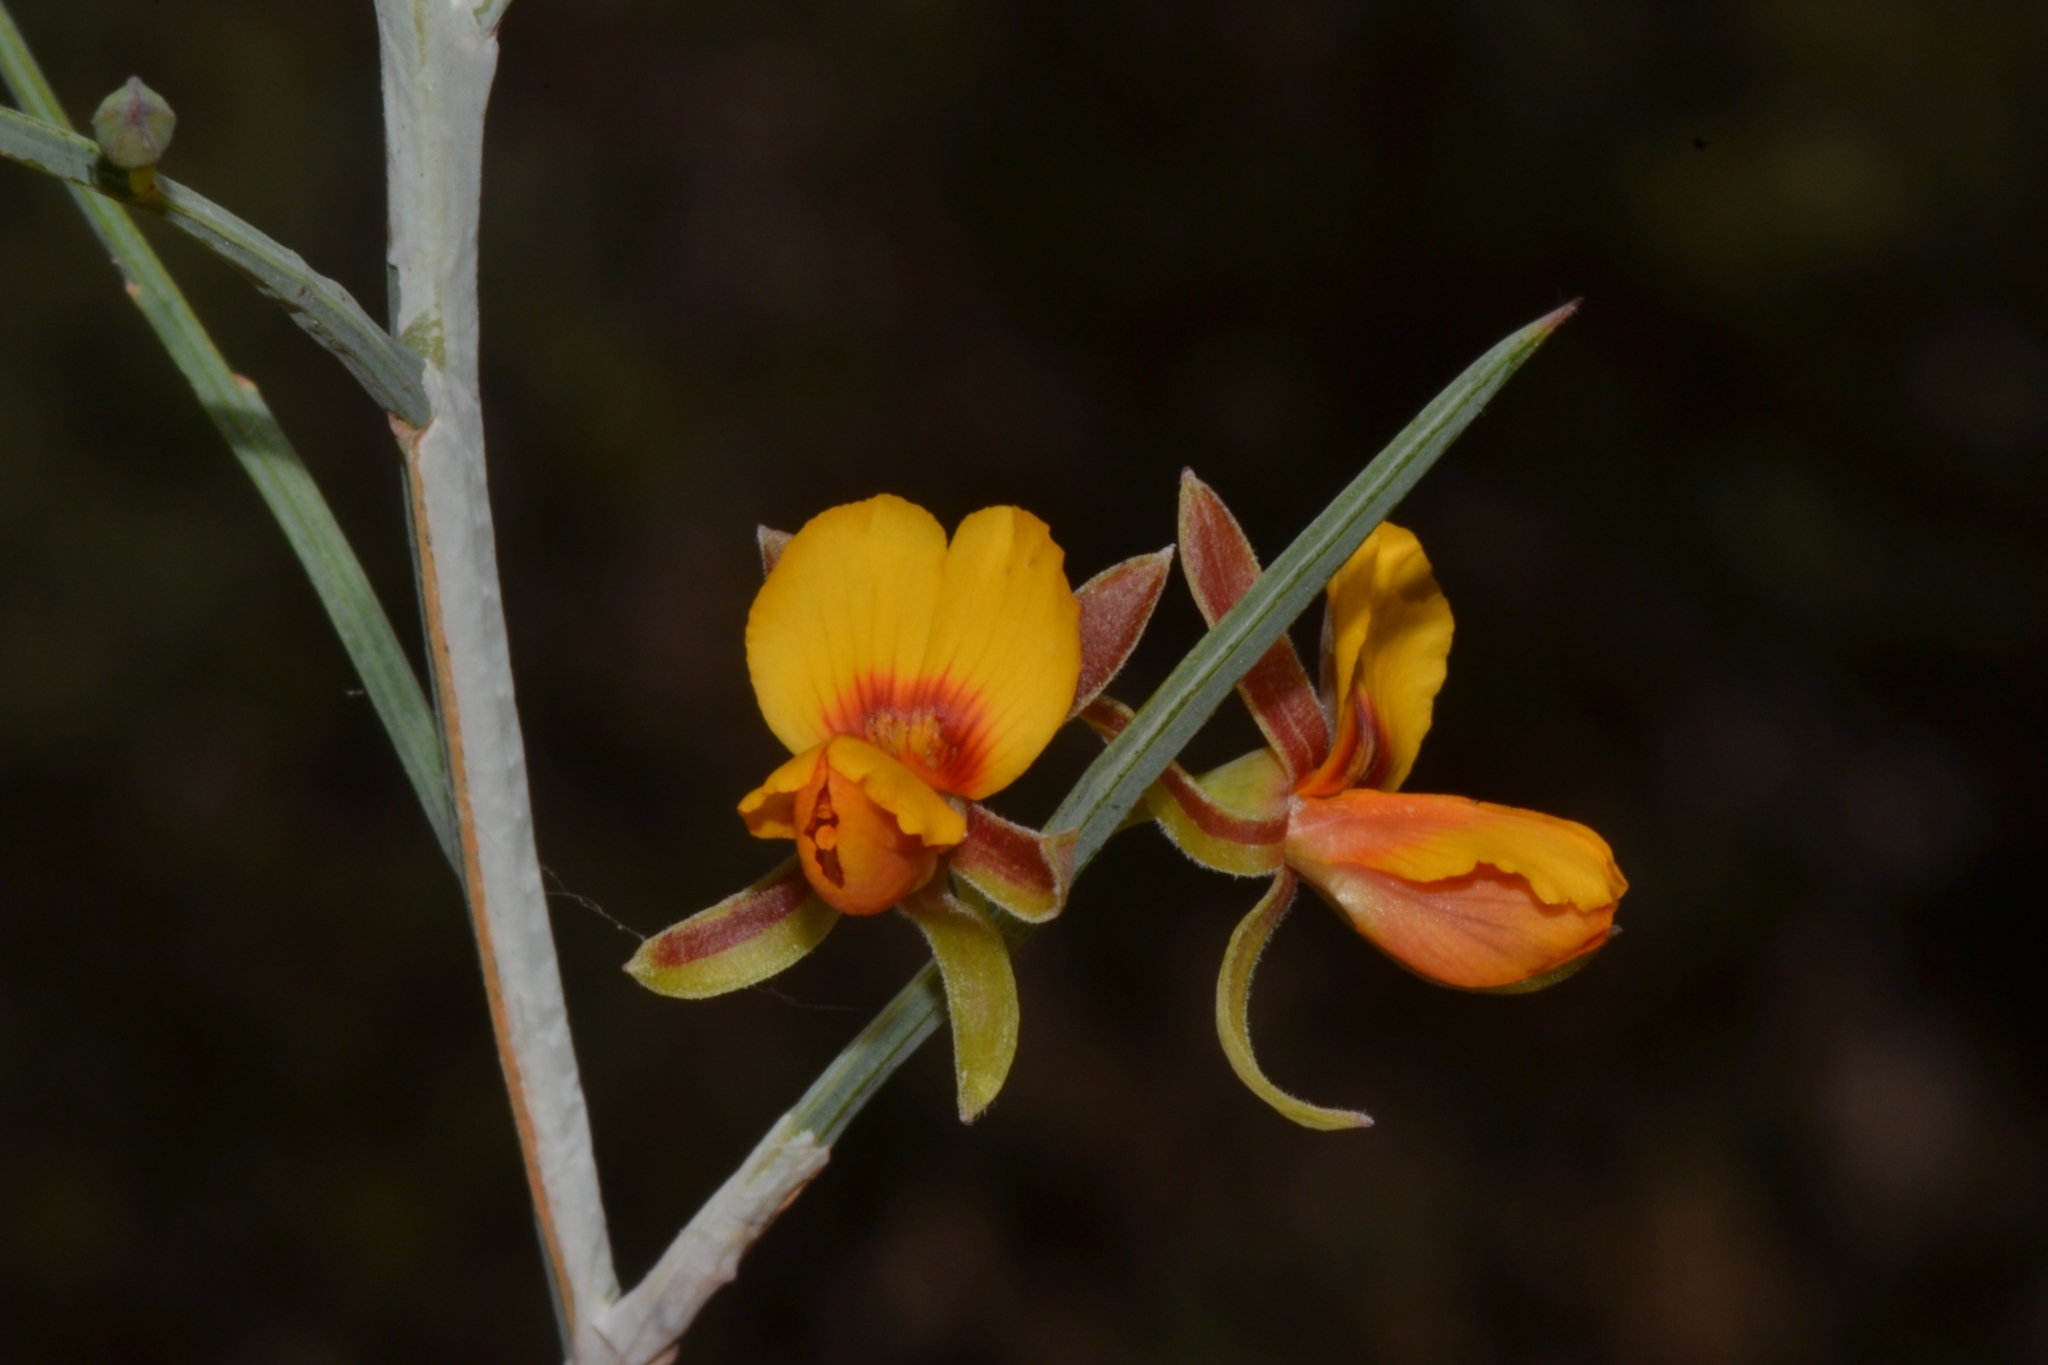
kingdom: Plantae
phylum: Tracheophyta
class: Magnoliopsida
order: Fabales
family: Fabaceae
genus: Jacksonia
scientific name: Jacksonia sternbergiana
